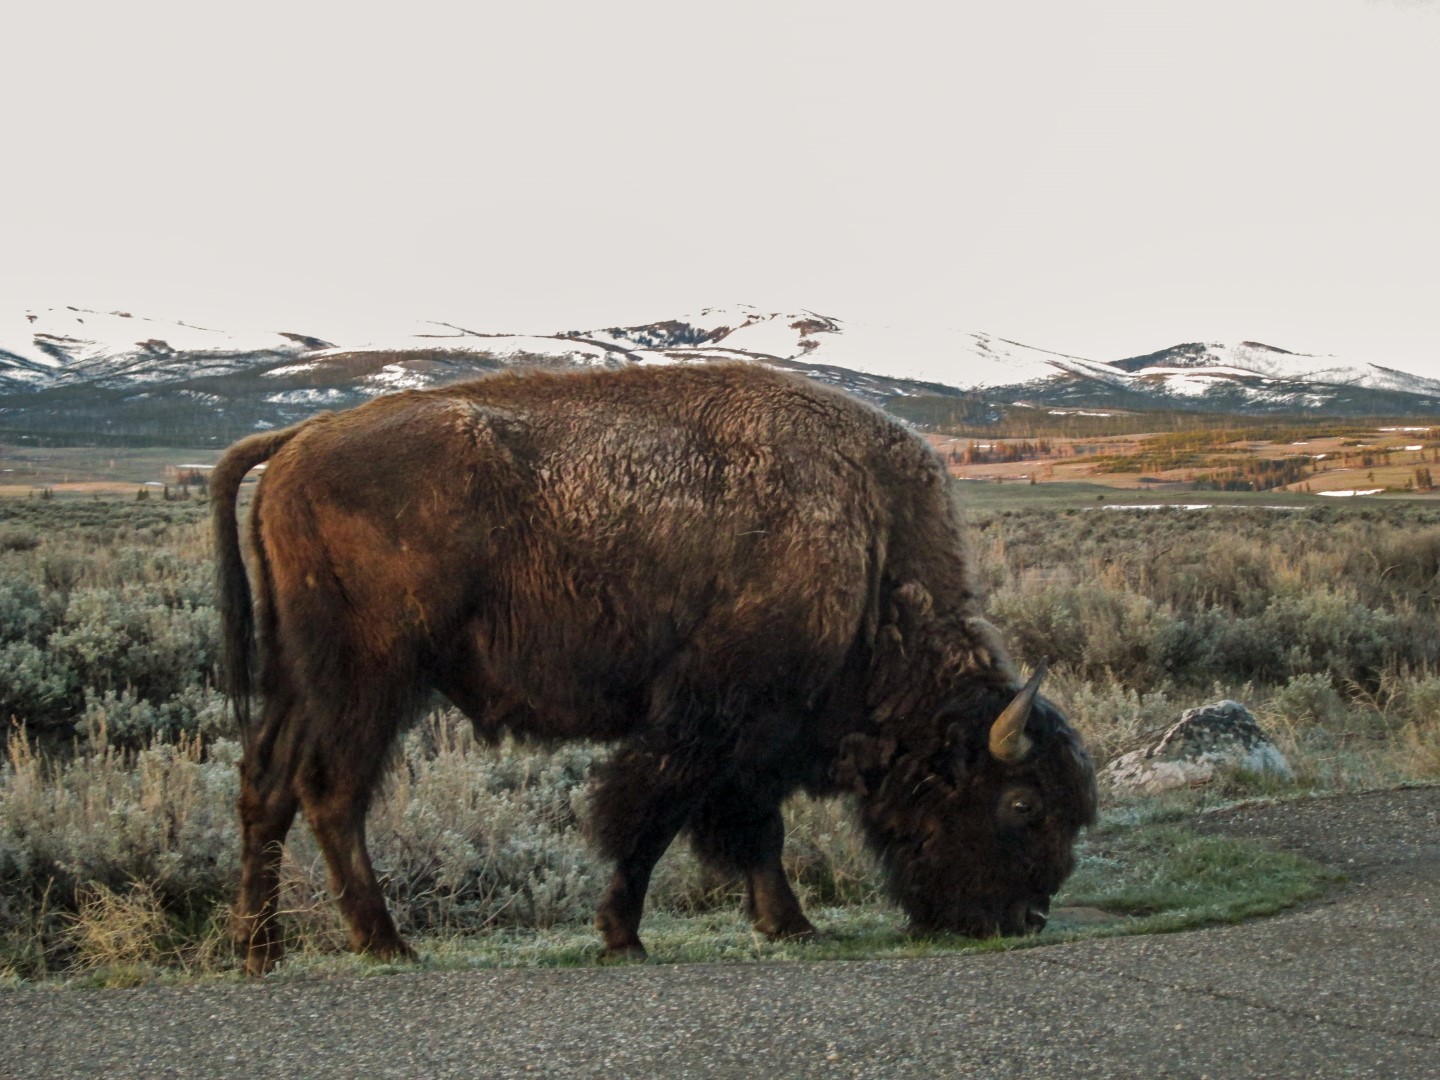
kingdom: Animalia
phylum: Chordata
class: Mammalia
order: Artiodactyla
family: Bovidae
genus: Bison
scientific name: Bison bison
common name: American bison
